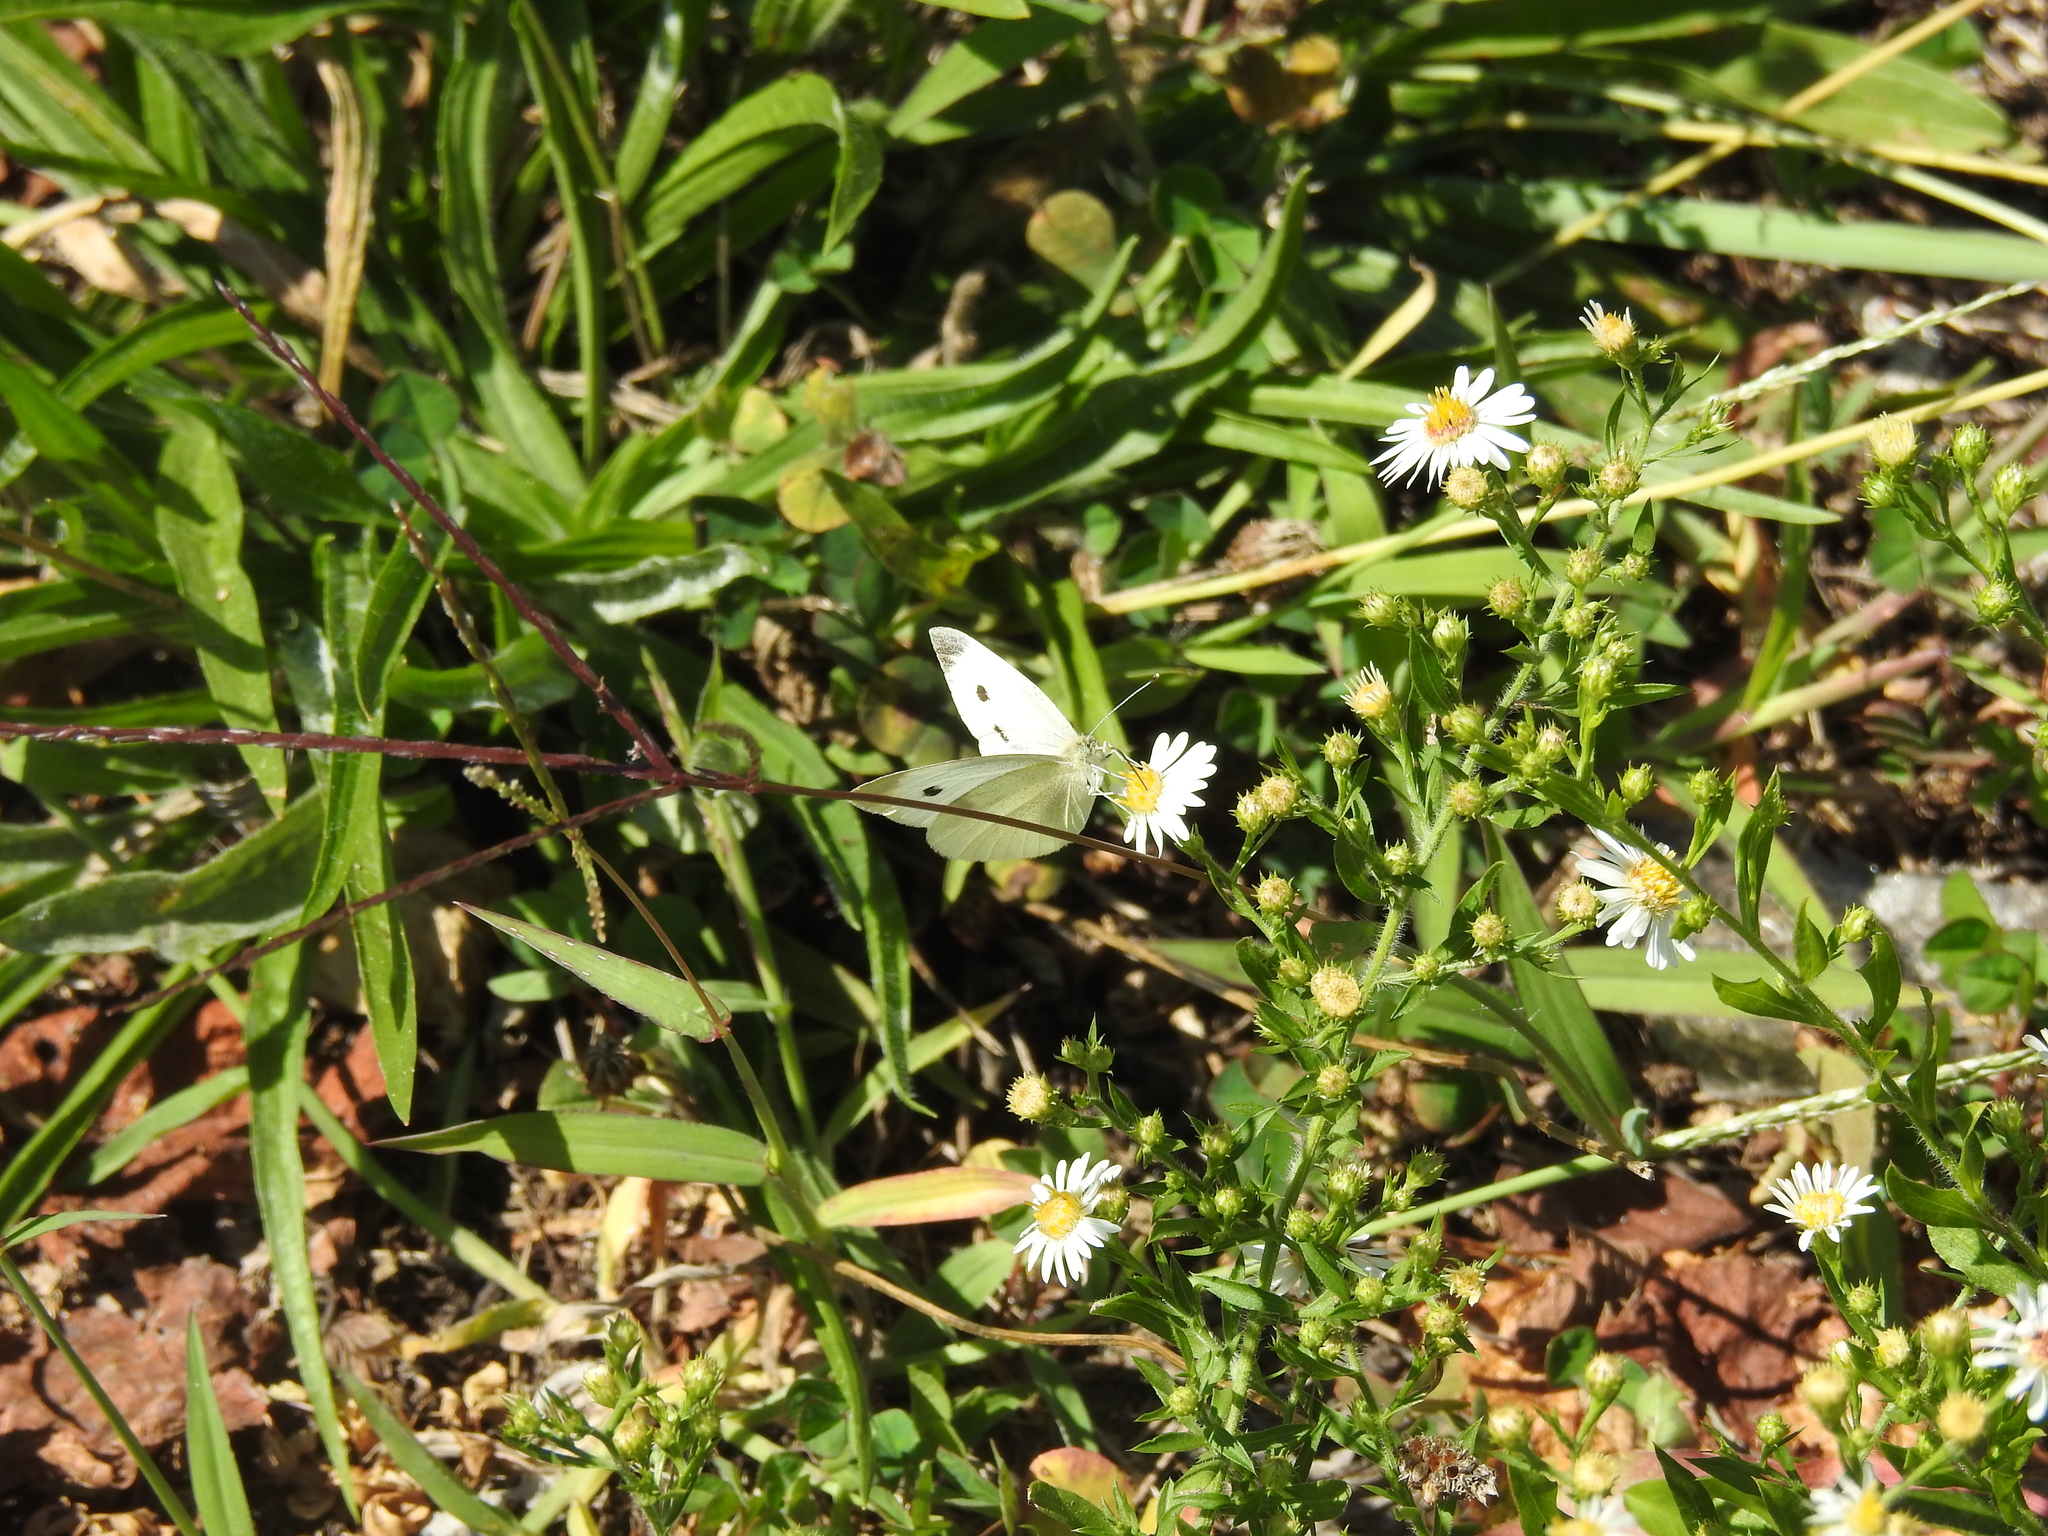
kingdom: Animalia
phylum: Arthropoda
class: Insecta
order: Lepidoptera
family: Pieridae
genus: Pieris
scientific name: Pieris rapae
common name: Small white
